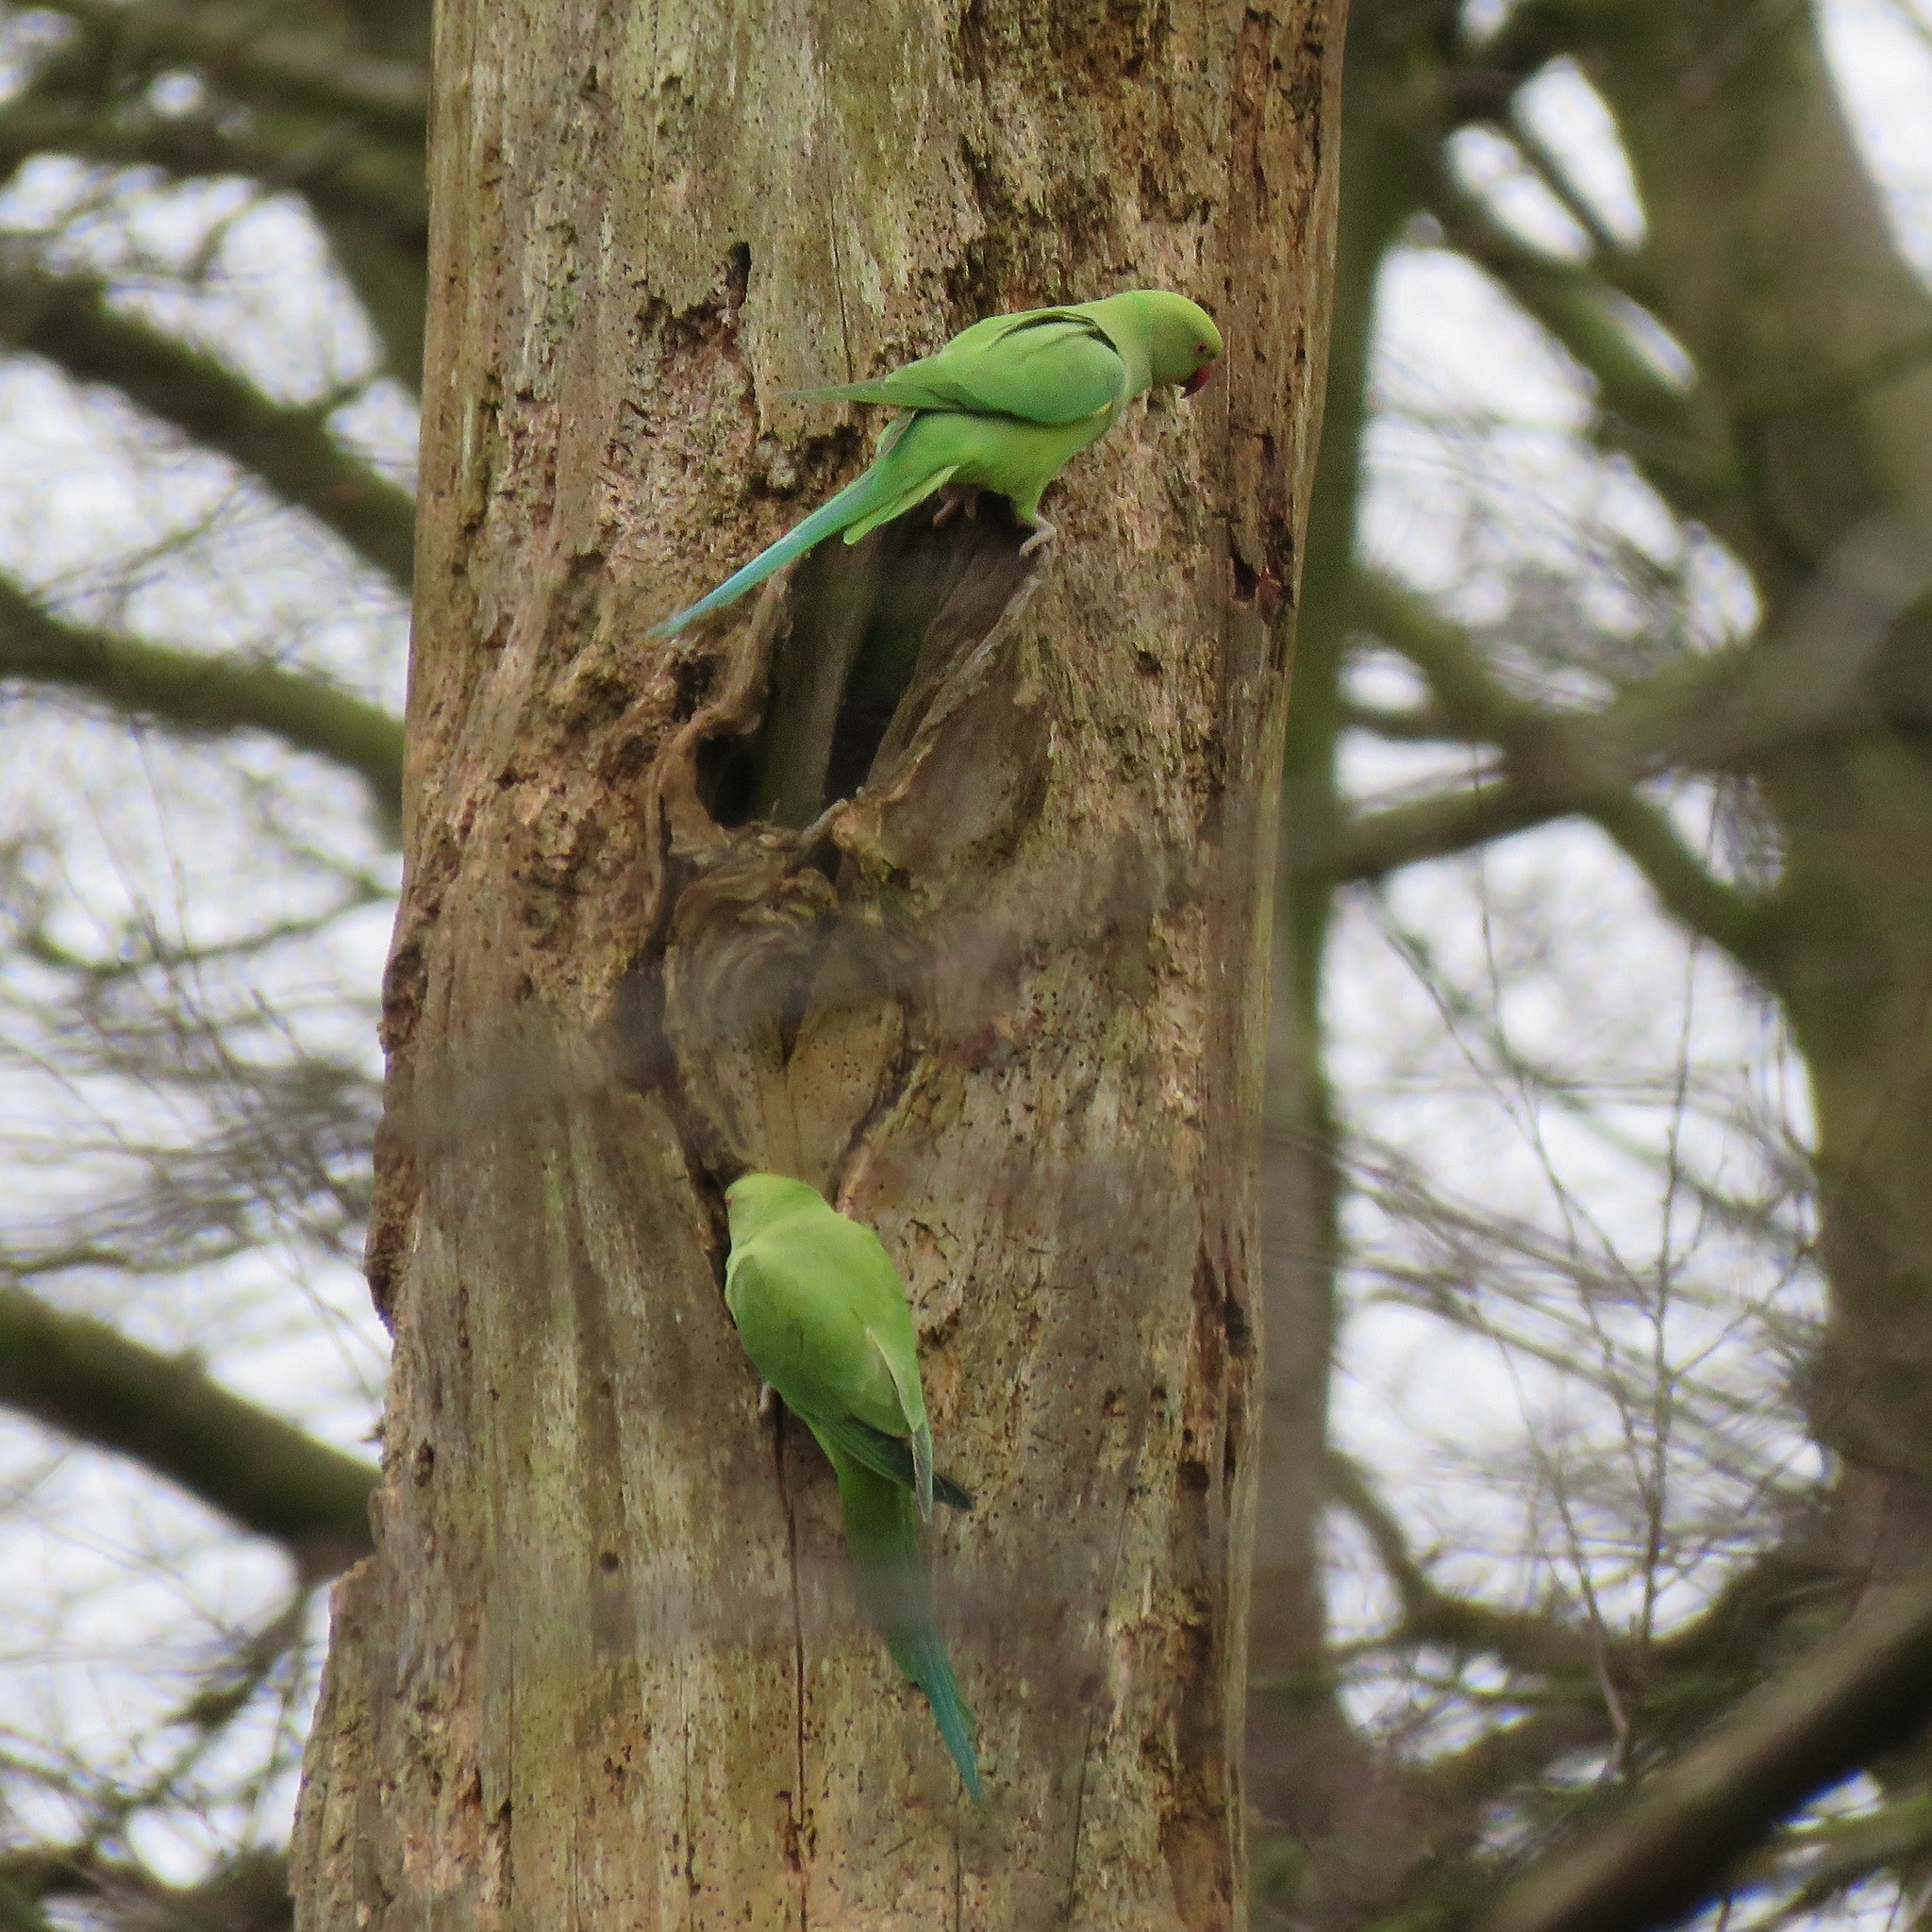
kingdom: Animalia
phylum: Chordata
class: Aves
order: Psittaciformes
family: Psittacidae
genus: Psittacula
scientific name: Psittacula krameri
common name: Rose-ringed parakeet
